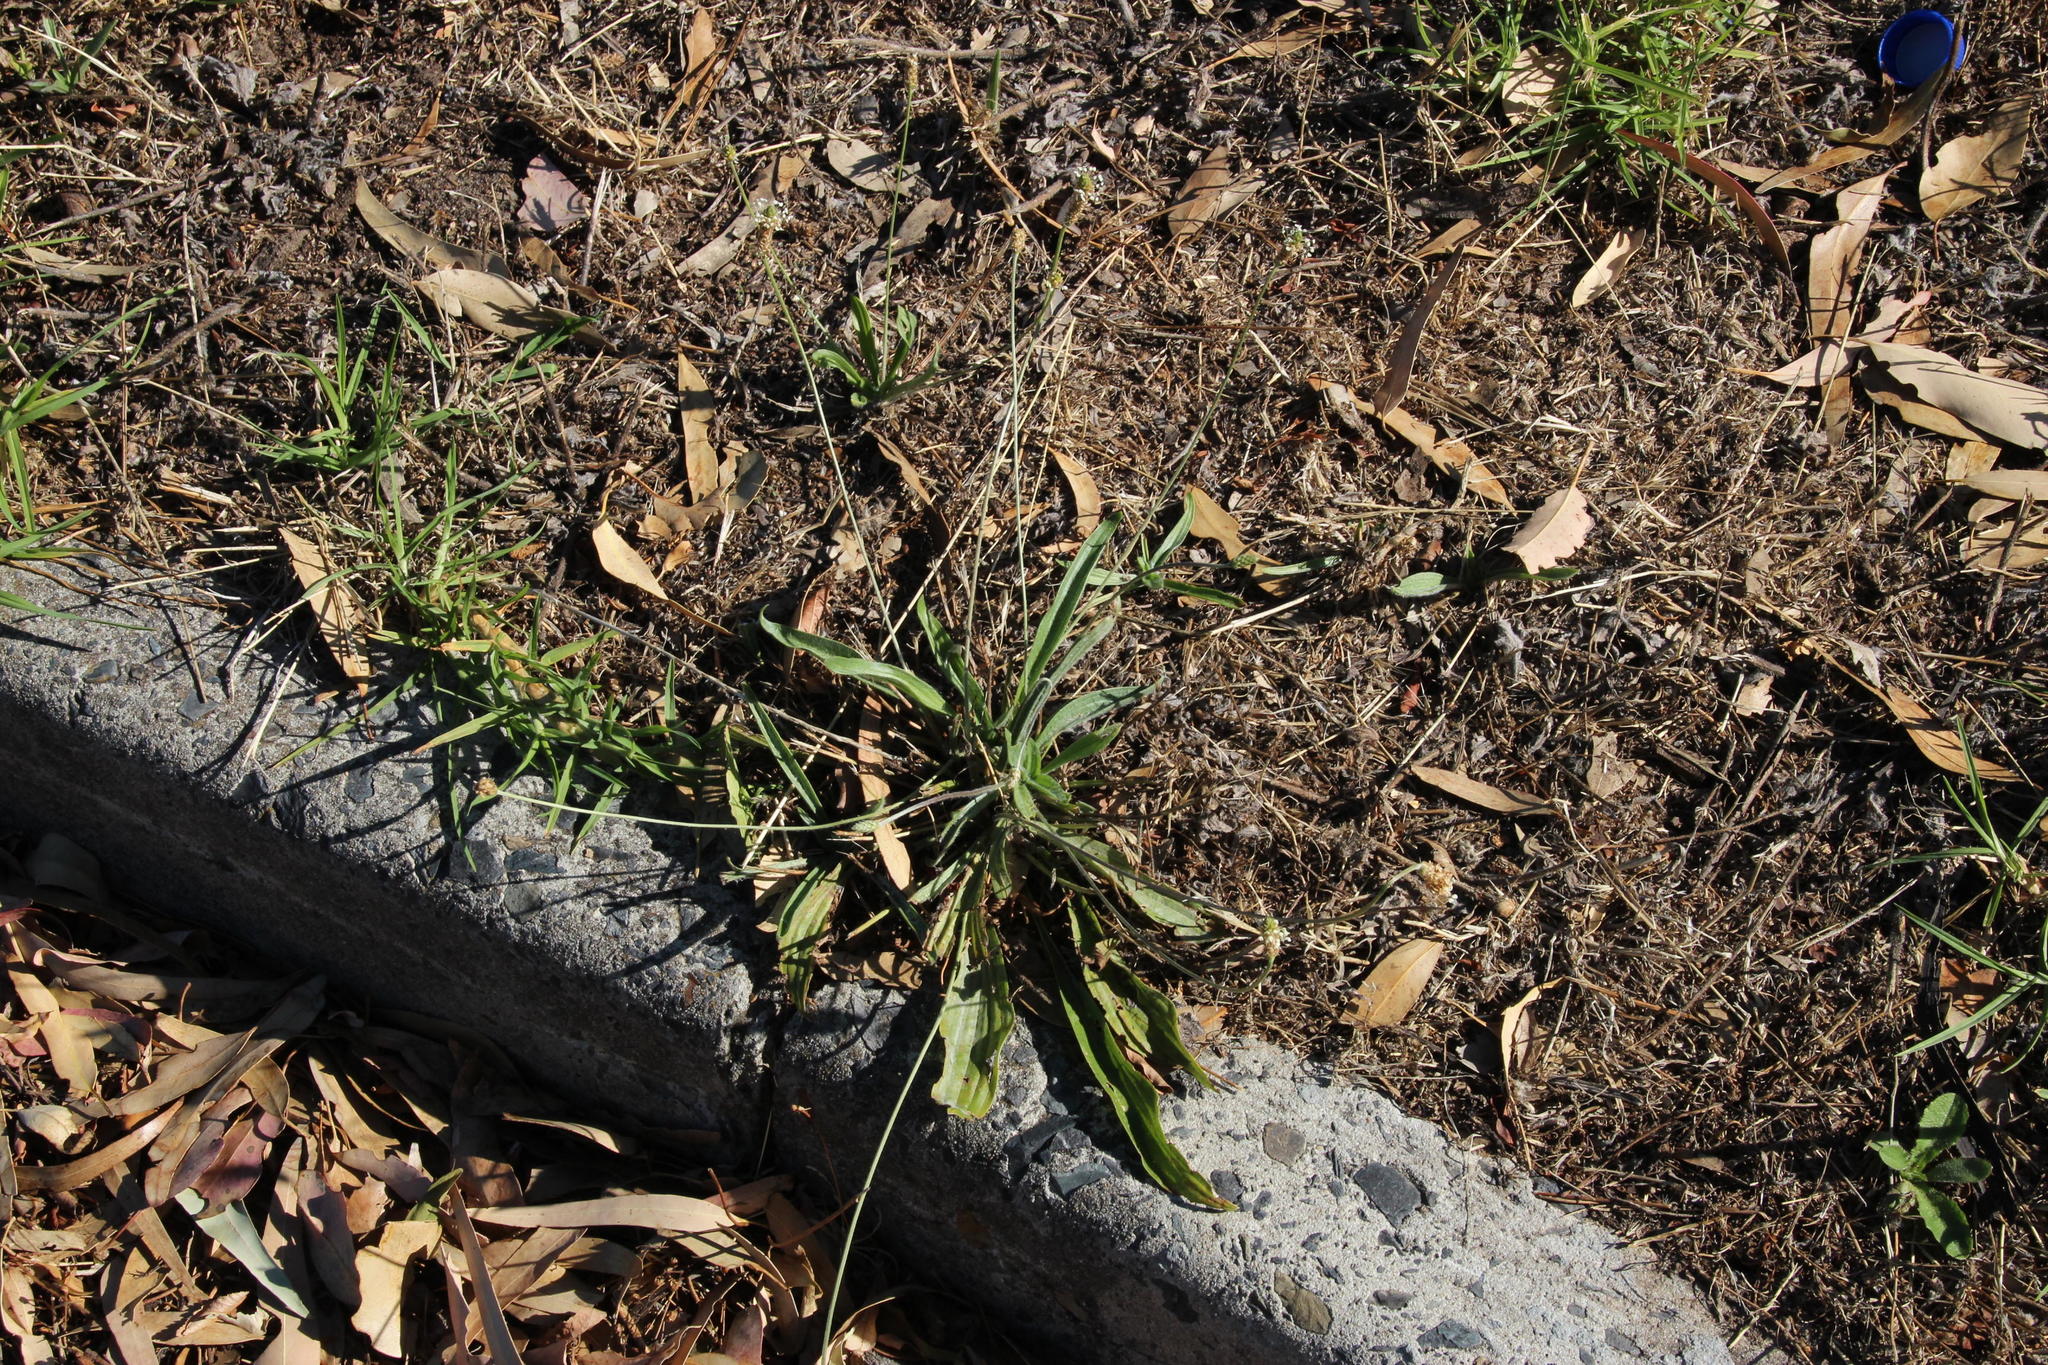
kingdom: Plantae
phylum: Tracheophyta
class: Magnoliopsida
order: Lamiales
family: Plantaginaceae
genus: Plantago
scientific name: Plantago lanceolata
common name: Ribwort plantain
